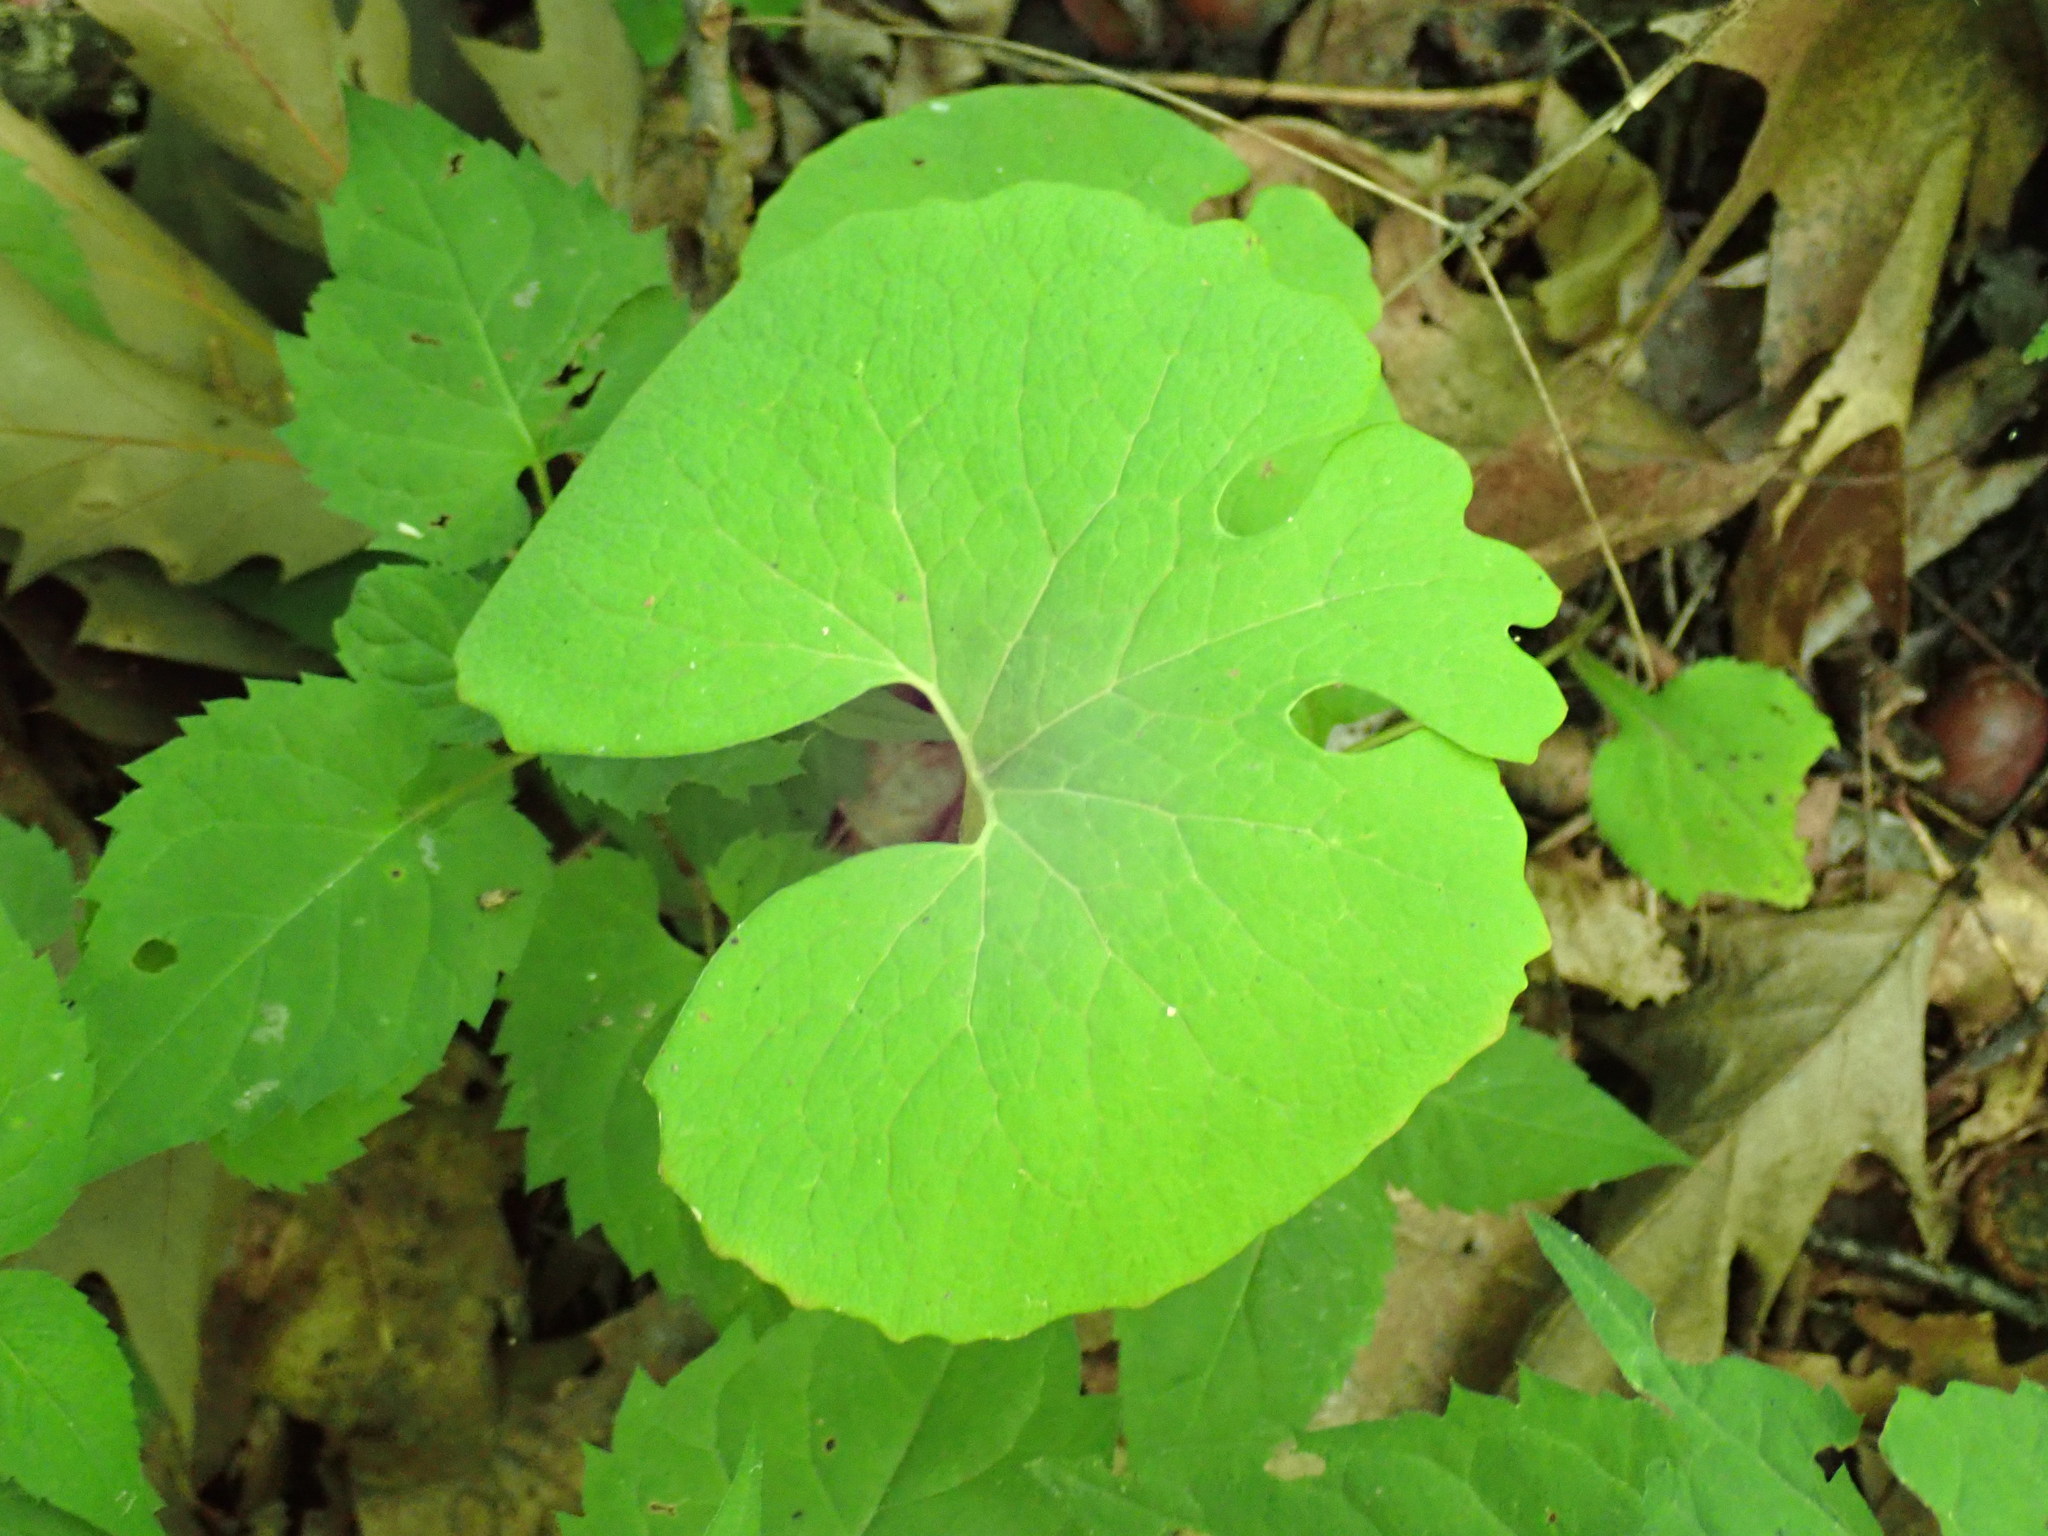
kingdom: Plantae
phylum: Tracheophyta
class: Magnoliopsida
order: Ranunculales
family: Papaveraceae
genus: Sanguinaria
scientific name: Sanguinaria canadensis
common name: Bloodroot
